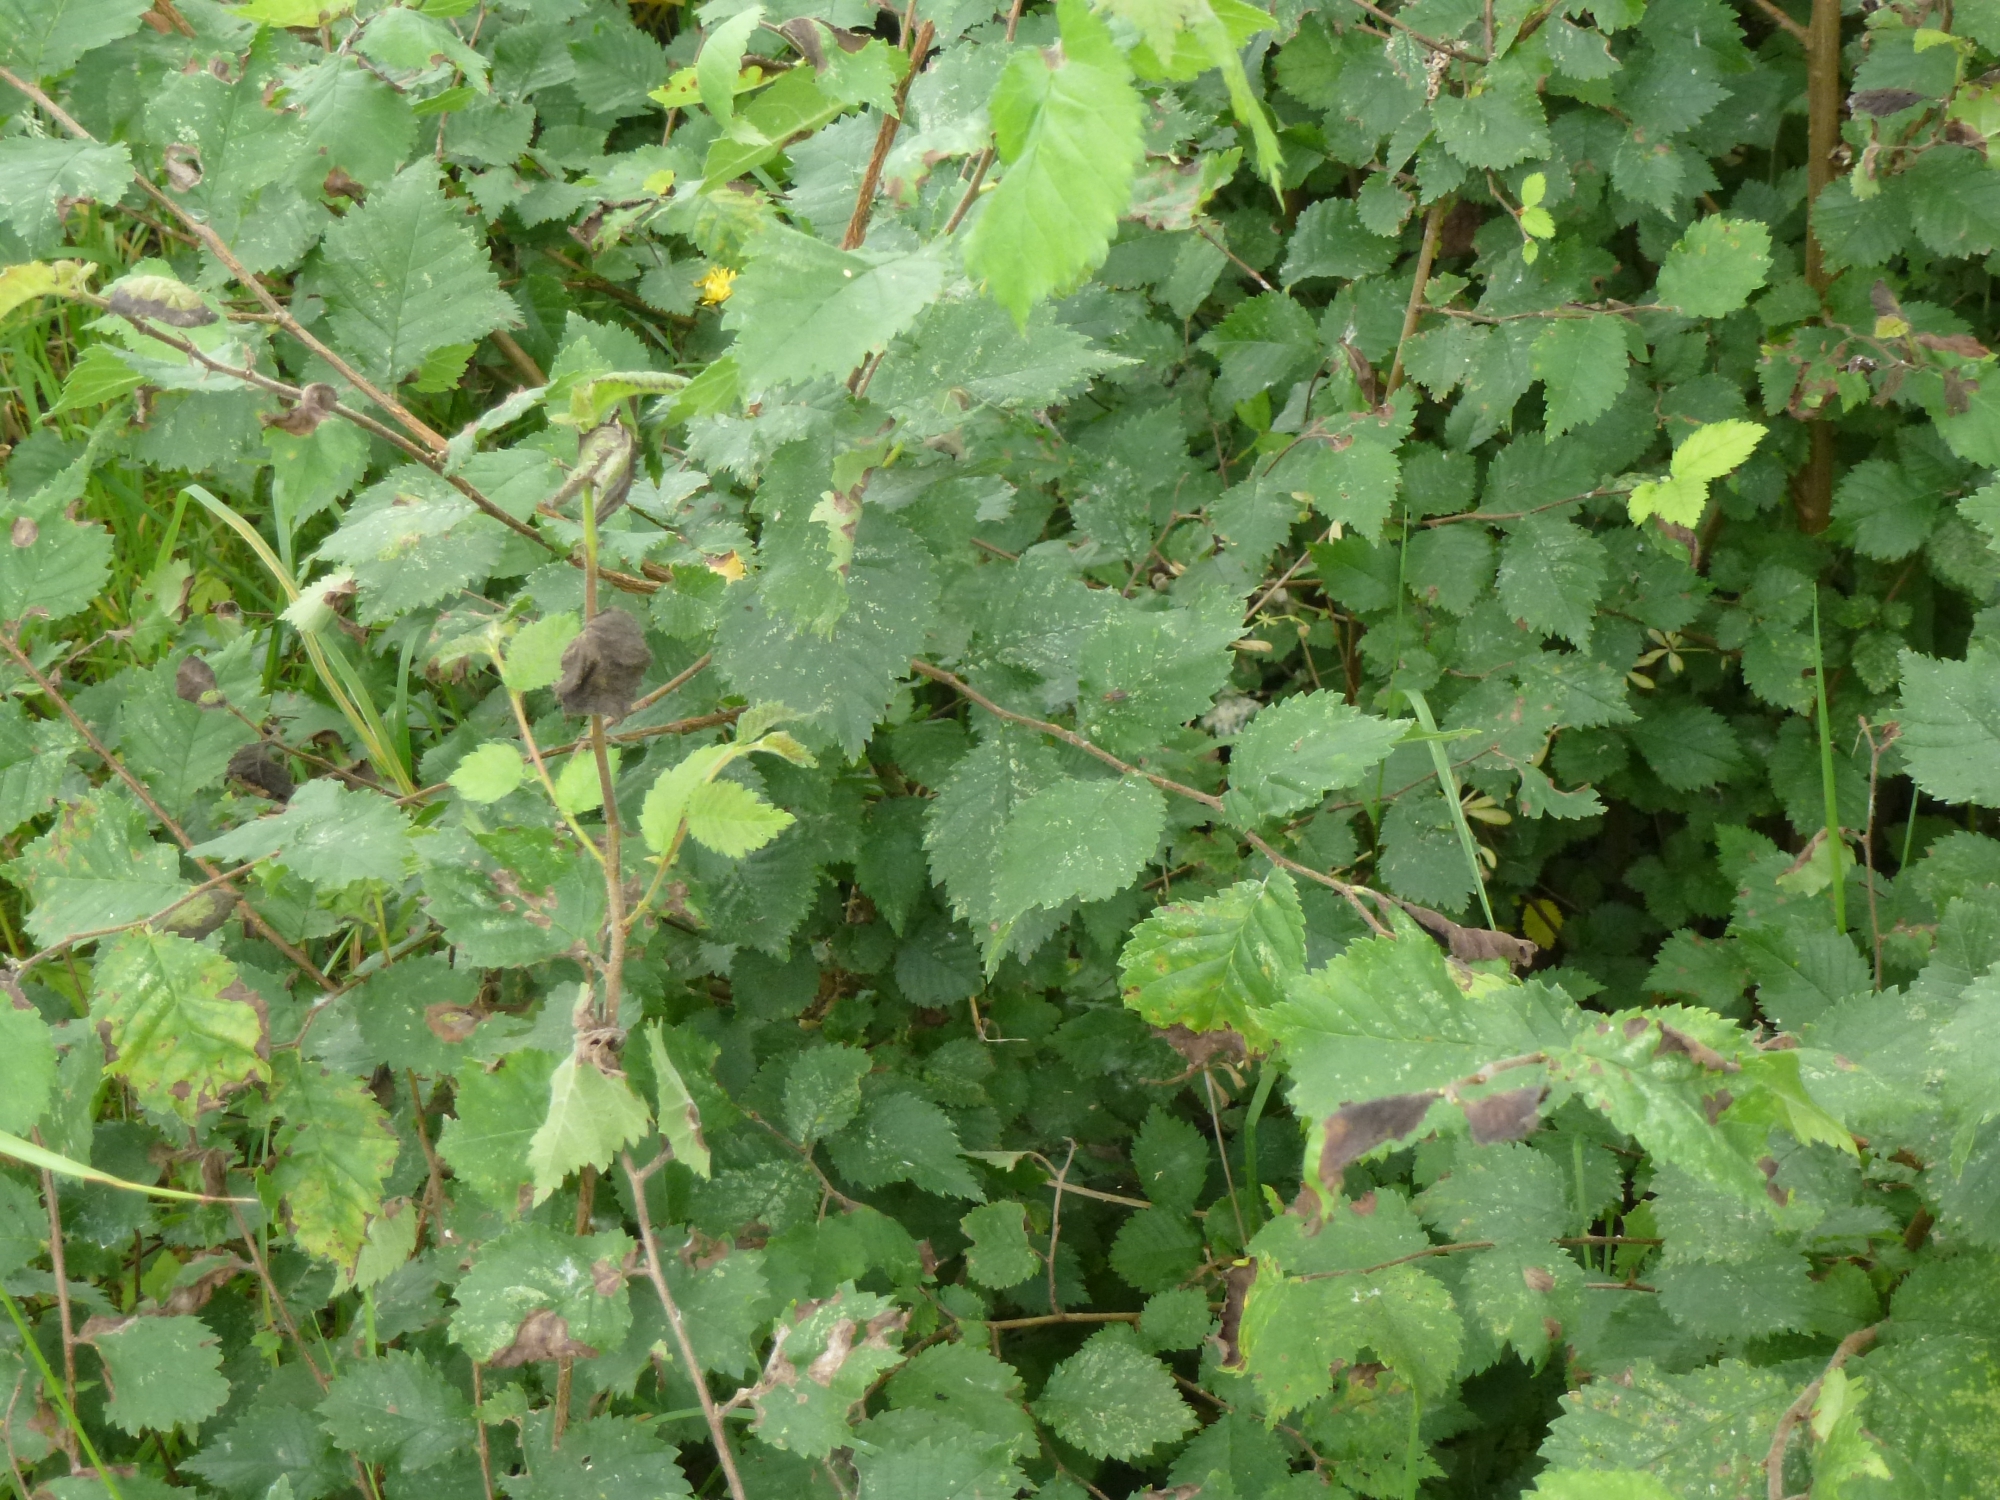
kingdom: Plantae
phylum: Tracheophyta
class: Magnoliopsida
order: Rosales
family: Ulmaceae
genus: Ulmus
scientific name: Ulmus minor
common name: Small-leaved elm
